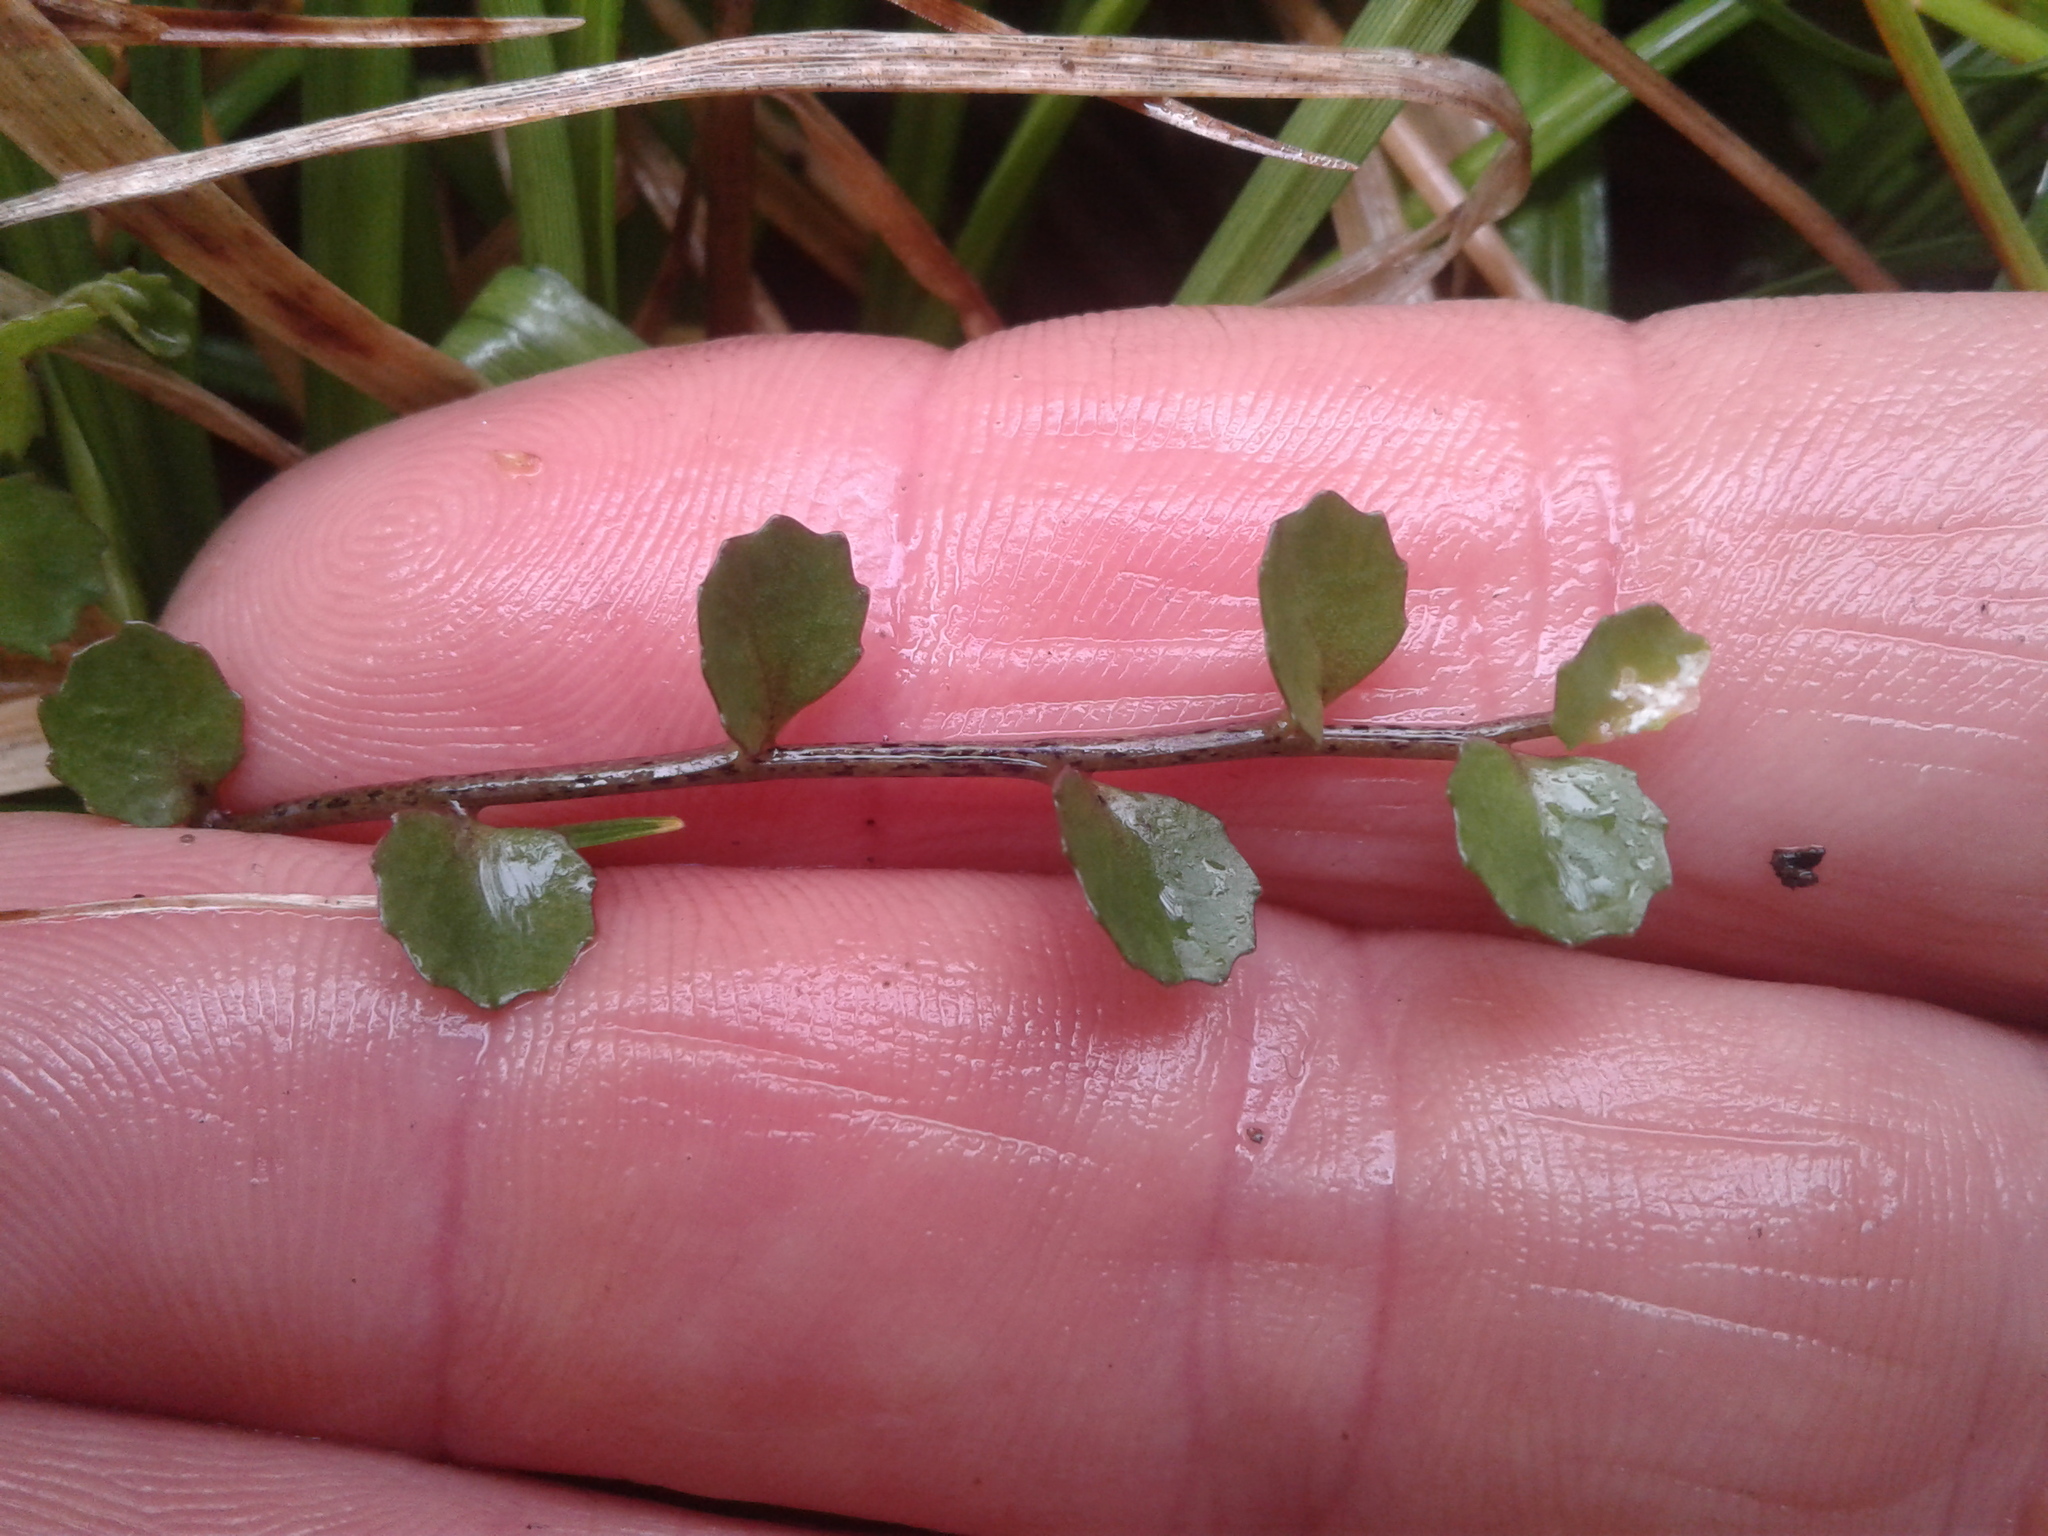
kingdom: Plantae
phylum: Tracheophyta
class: Magnoliopsida
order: Asterales
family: Campanulaceae
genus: Lobelia
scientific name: Lobelia angulata
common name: Lawn lobelia
